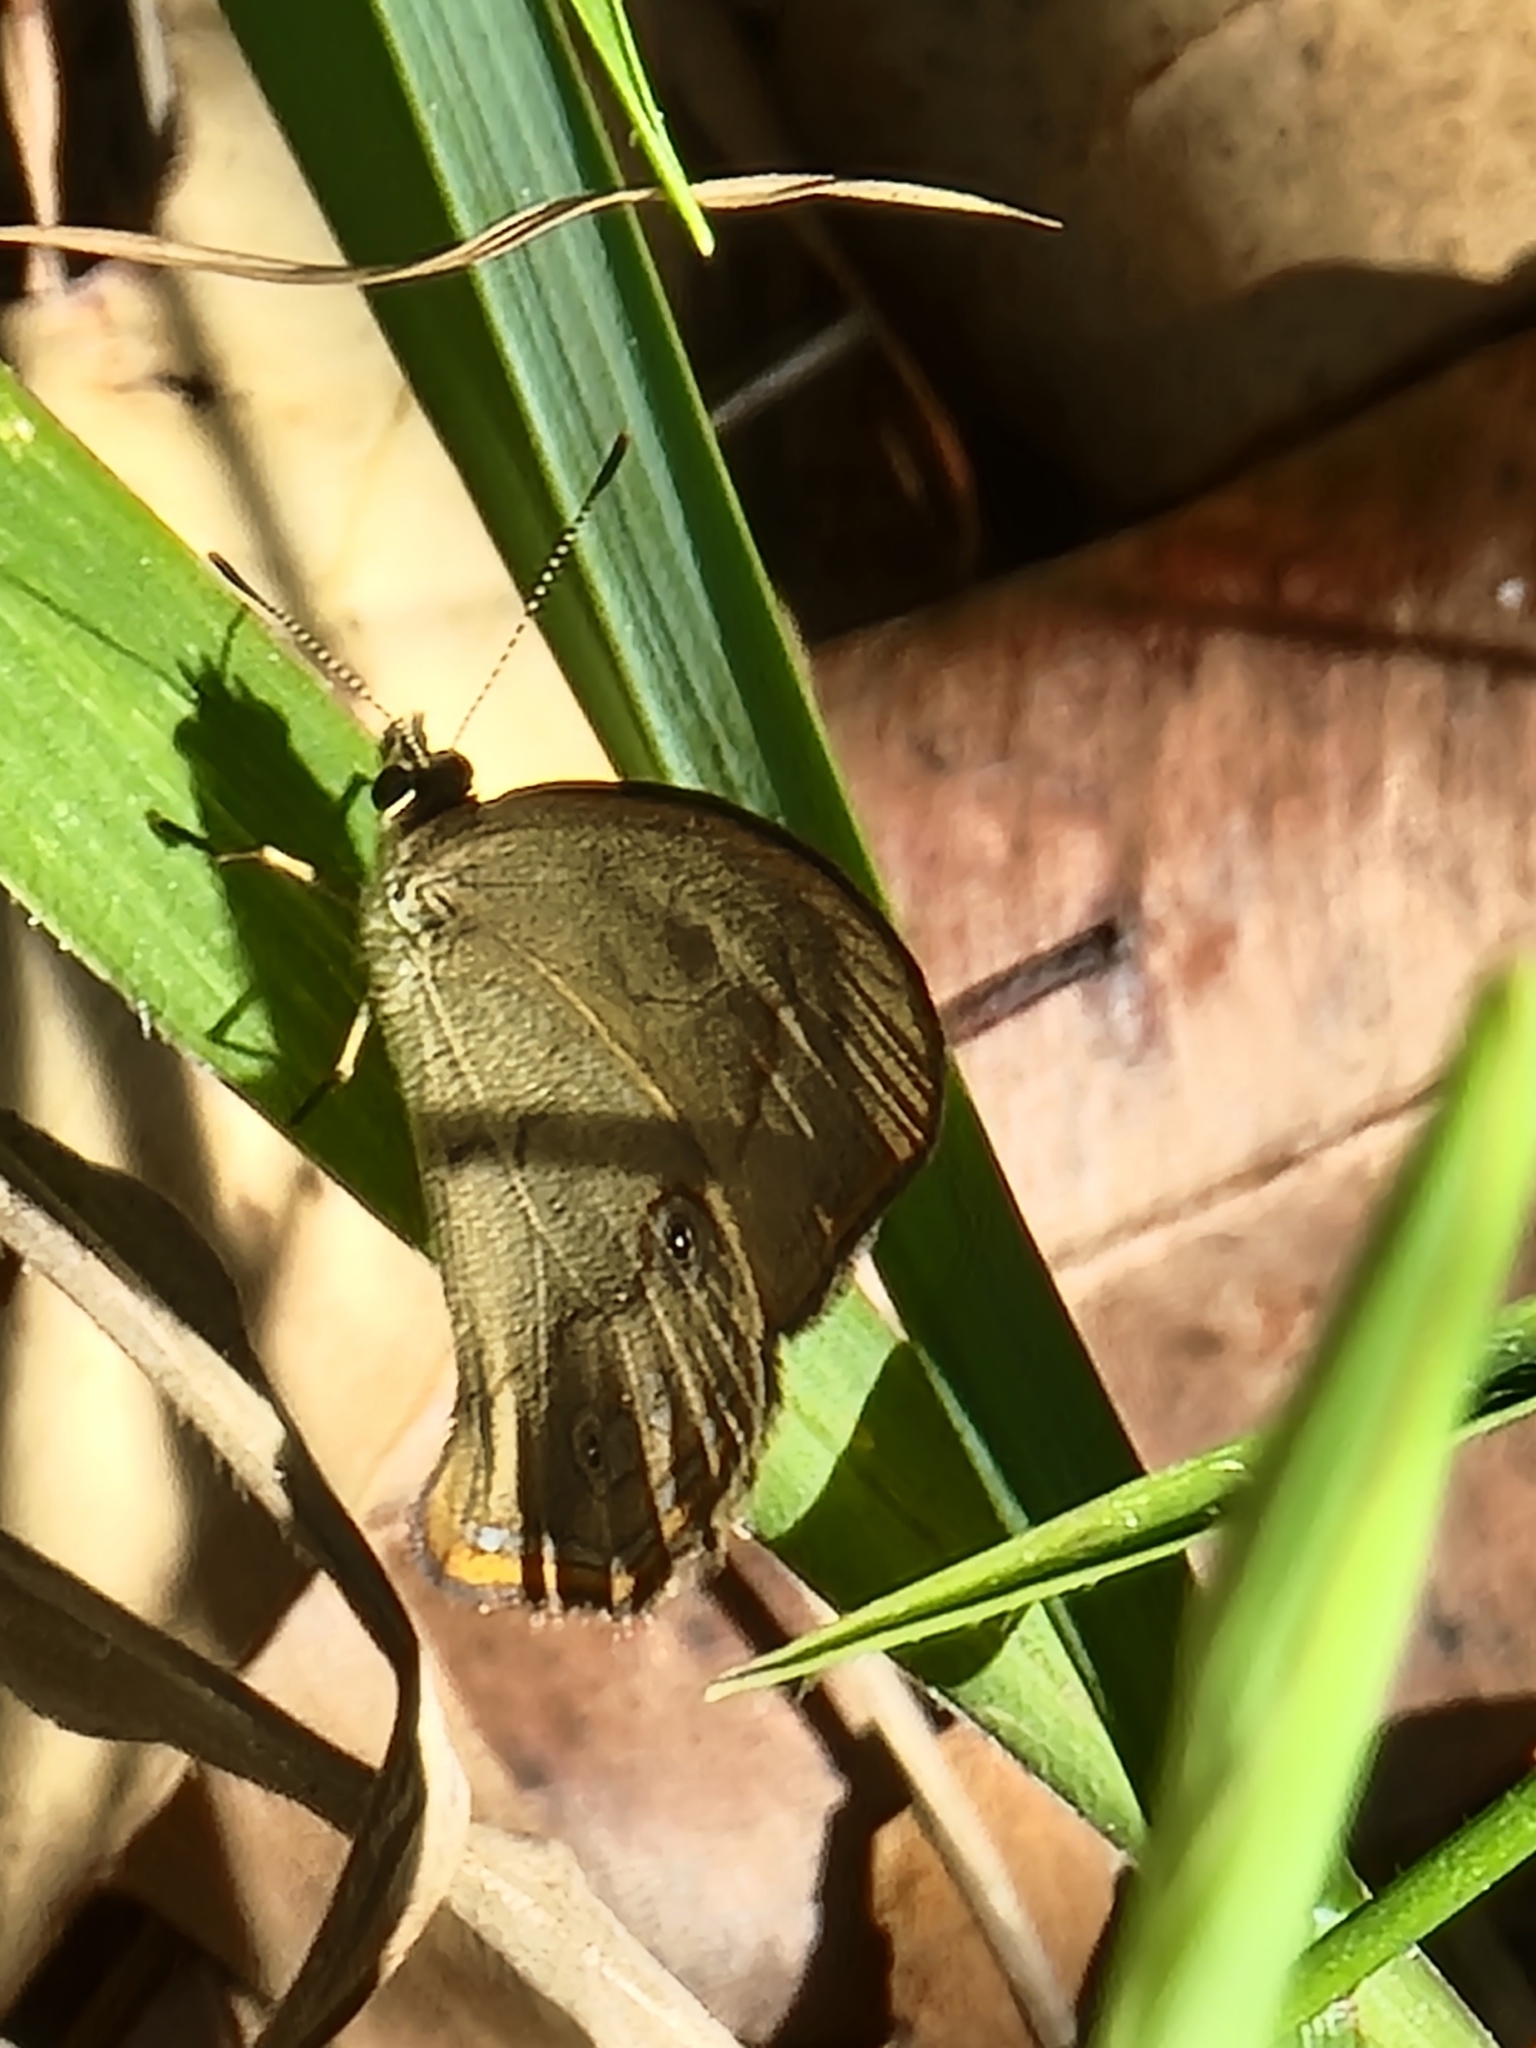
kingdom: Animalia
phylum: Arthropoda
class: Insecta
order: Lepidoptera
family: Nymphalidae
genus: Hypocysta
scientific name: Hypocysta metirius
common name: Brown ringlet
